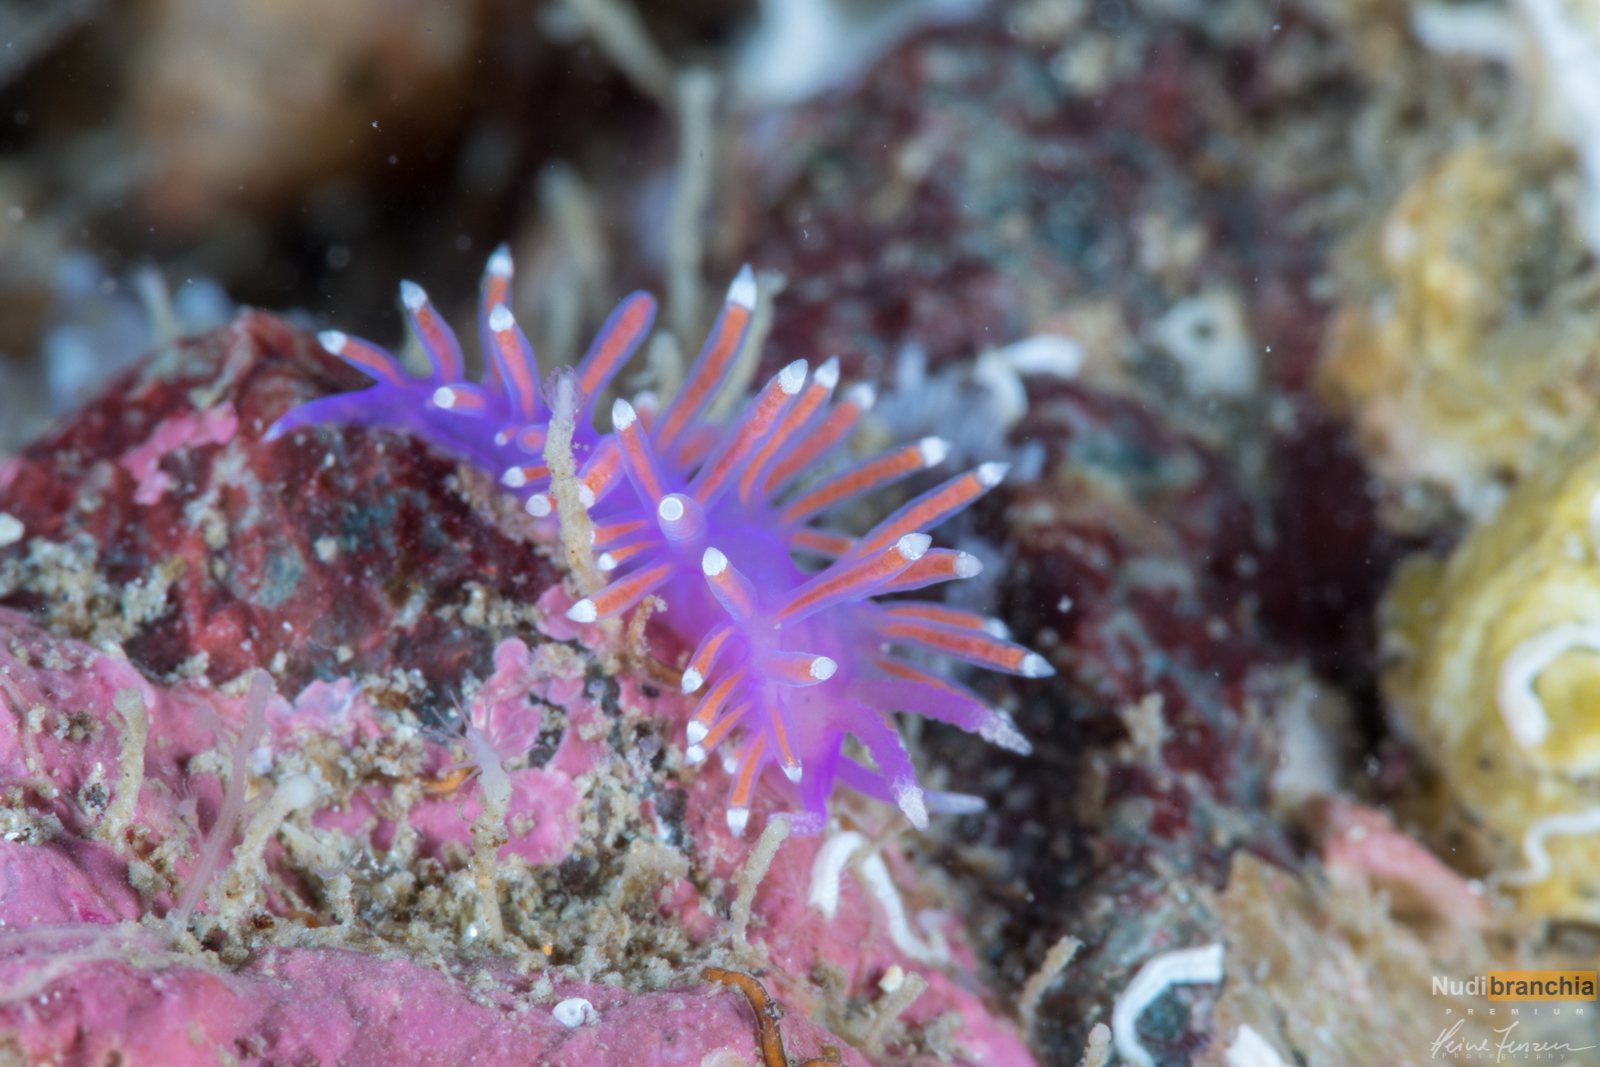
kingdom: Animalia
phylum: Mollusca
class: Gastropoda
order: Nudibranchia
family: Flabellinidae
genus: Edmundsella
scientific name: Edmundsella pedata
